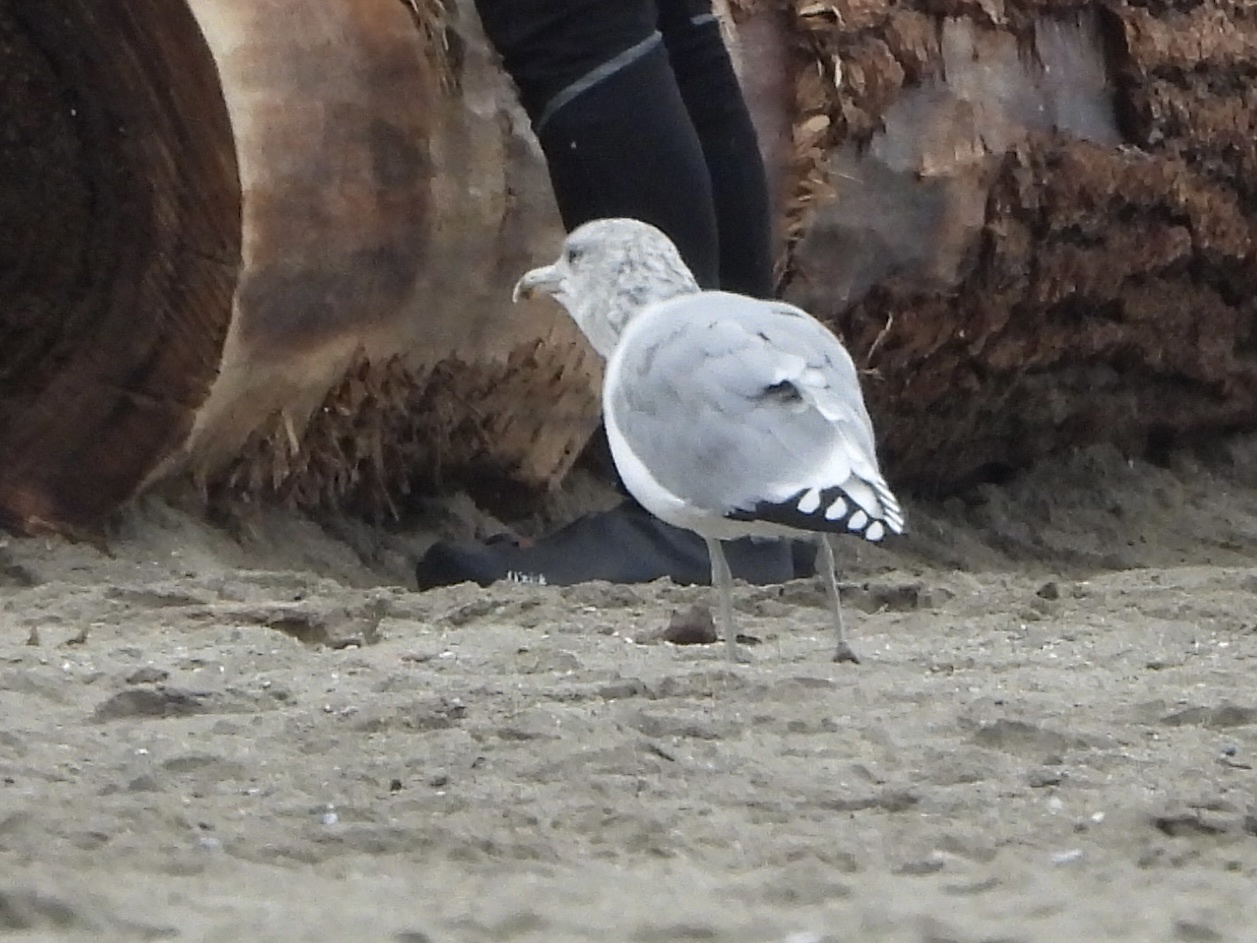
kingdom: Animalia
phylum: Chordata
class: Aves
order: Charadriiformes
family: Laridae
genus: Larus
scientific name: Larus californicus
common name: California gull
